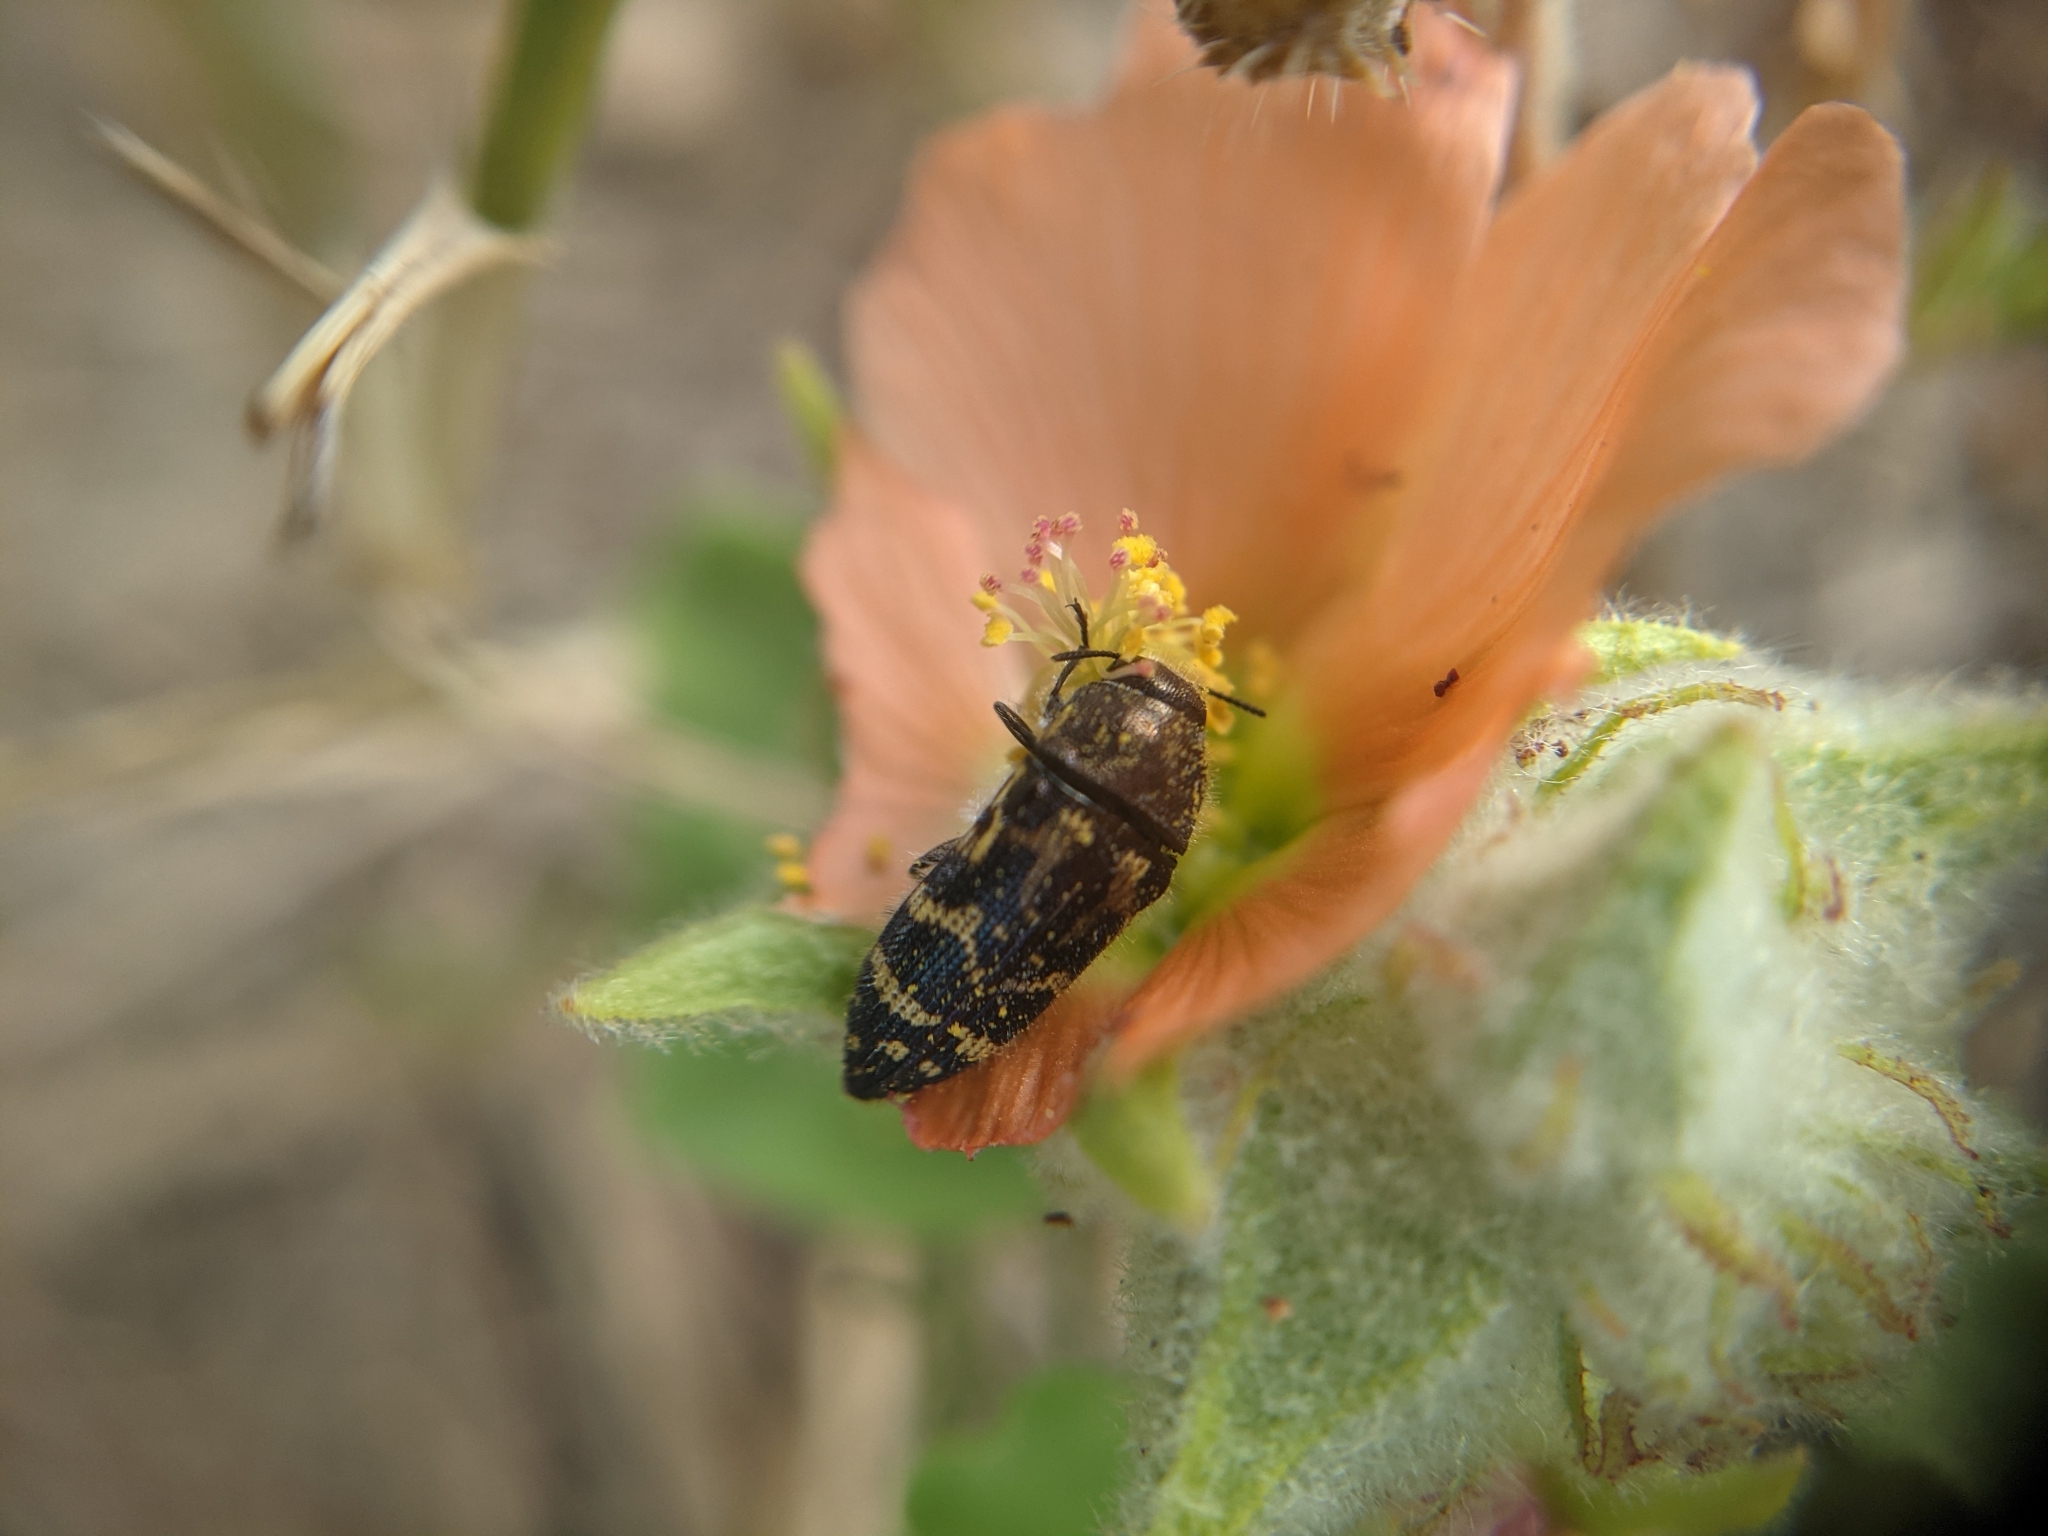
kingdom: Animalia
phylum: Arthropoda
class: Insecta
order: Coleoptera
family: Buprestidae
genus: Acmaeodera
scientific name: Acmaeodera mixta
